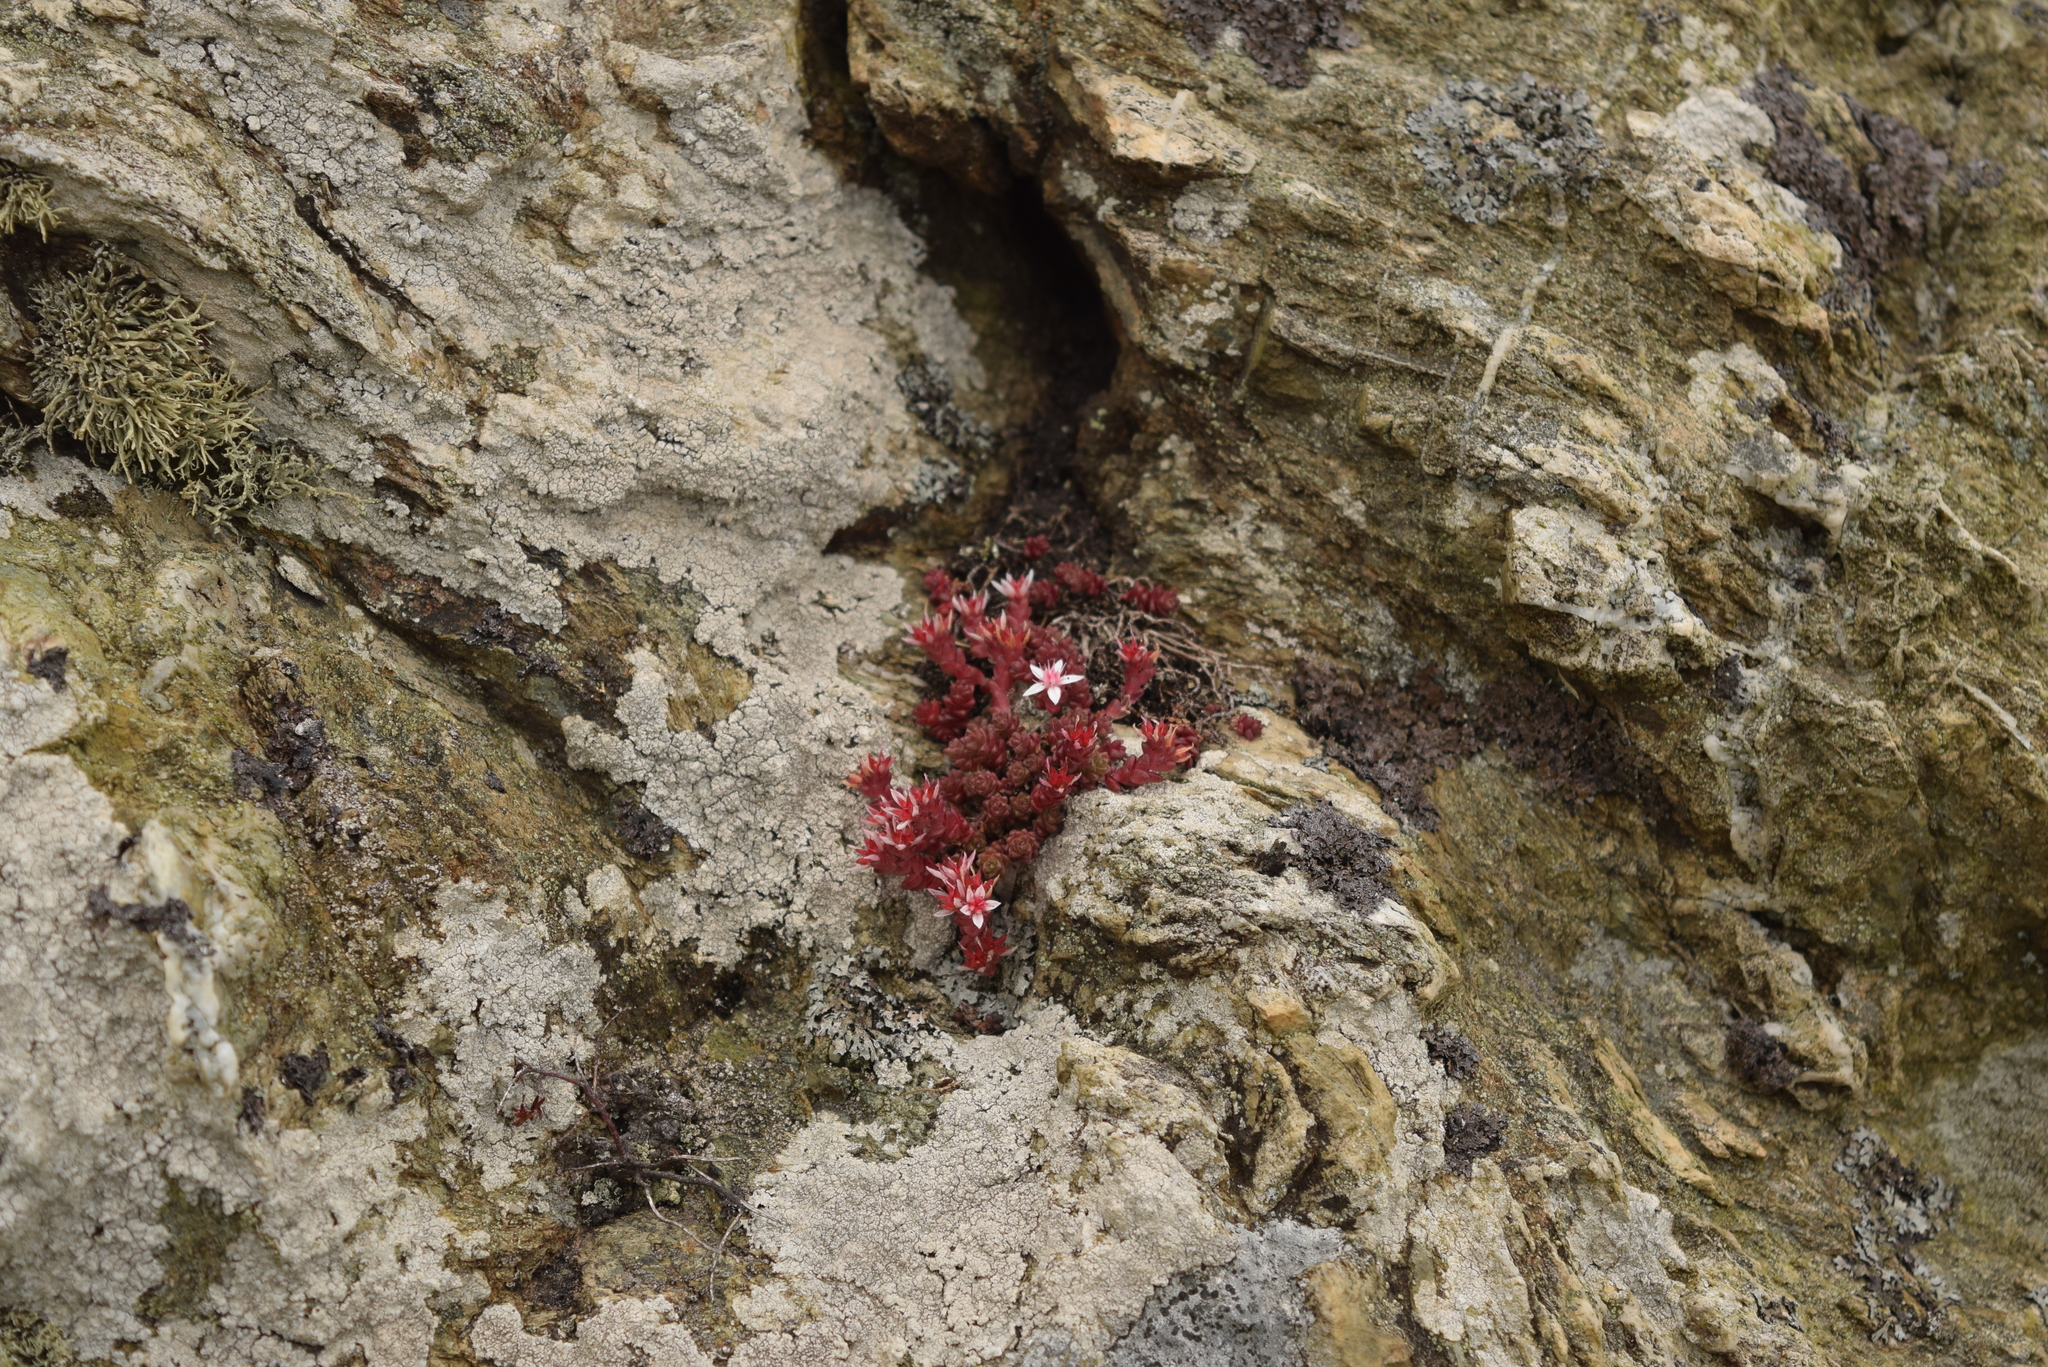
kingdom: Plantae
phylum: Tracheophyta
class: Magnoliopsida
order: Saxifragales
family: Crassulaceae
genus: Sedum
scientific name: Sedum anglicum
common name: English stonecrop
